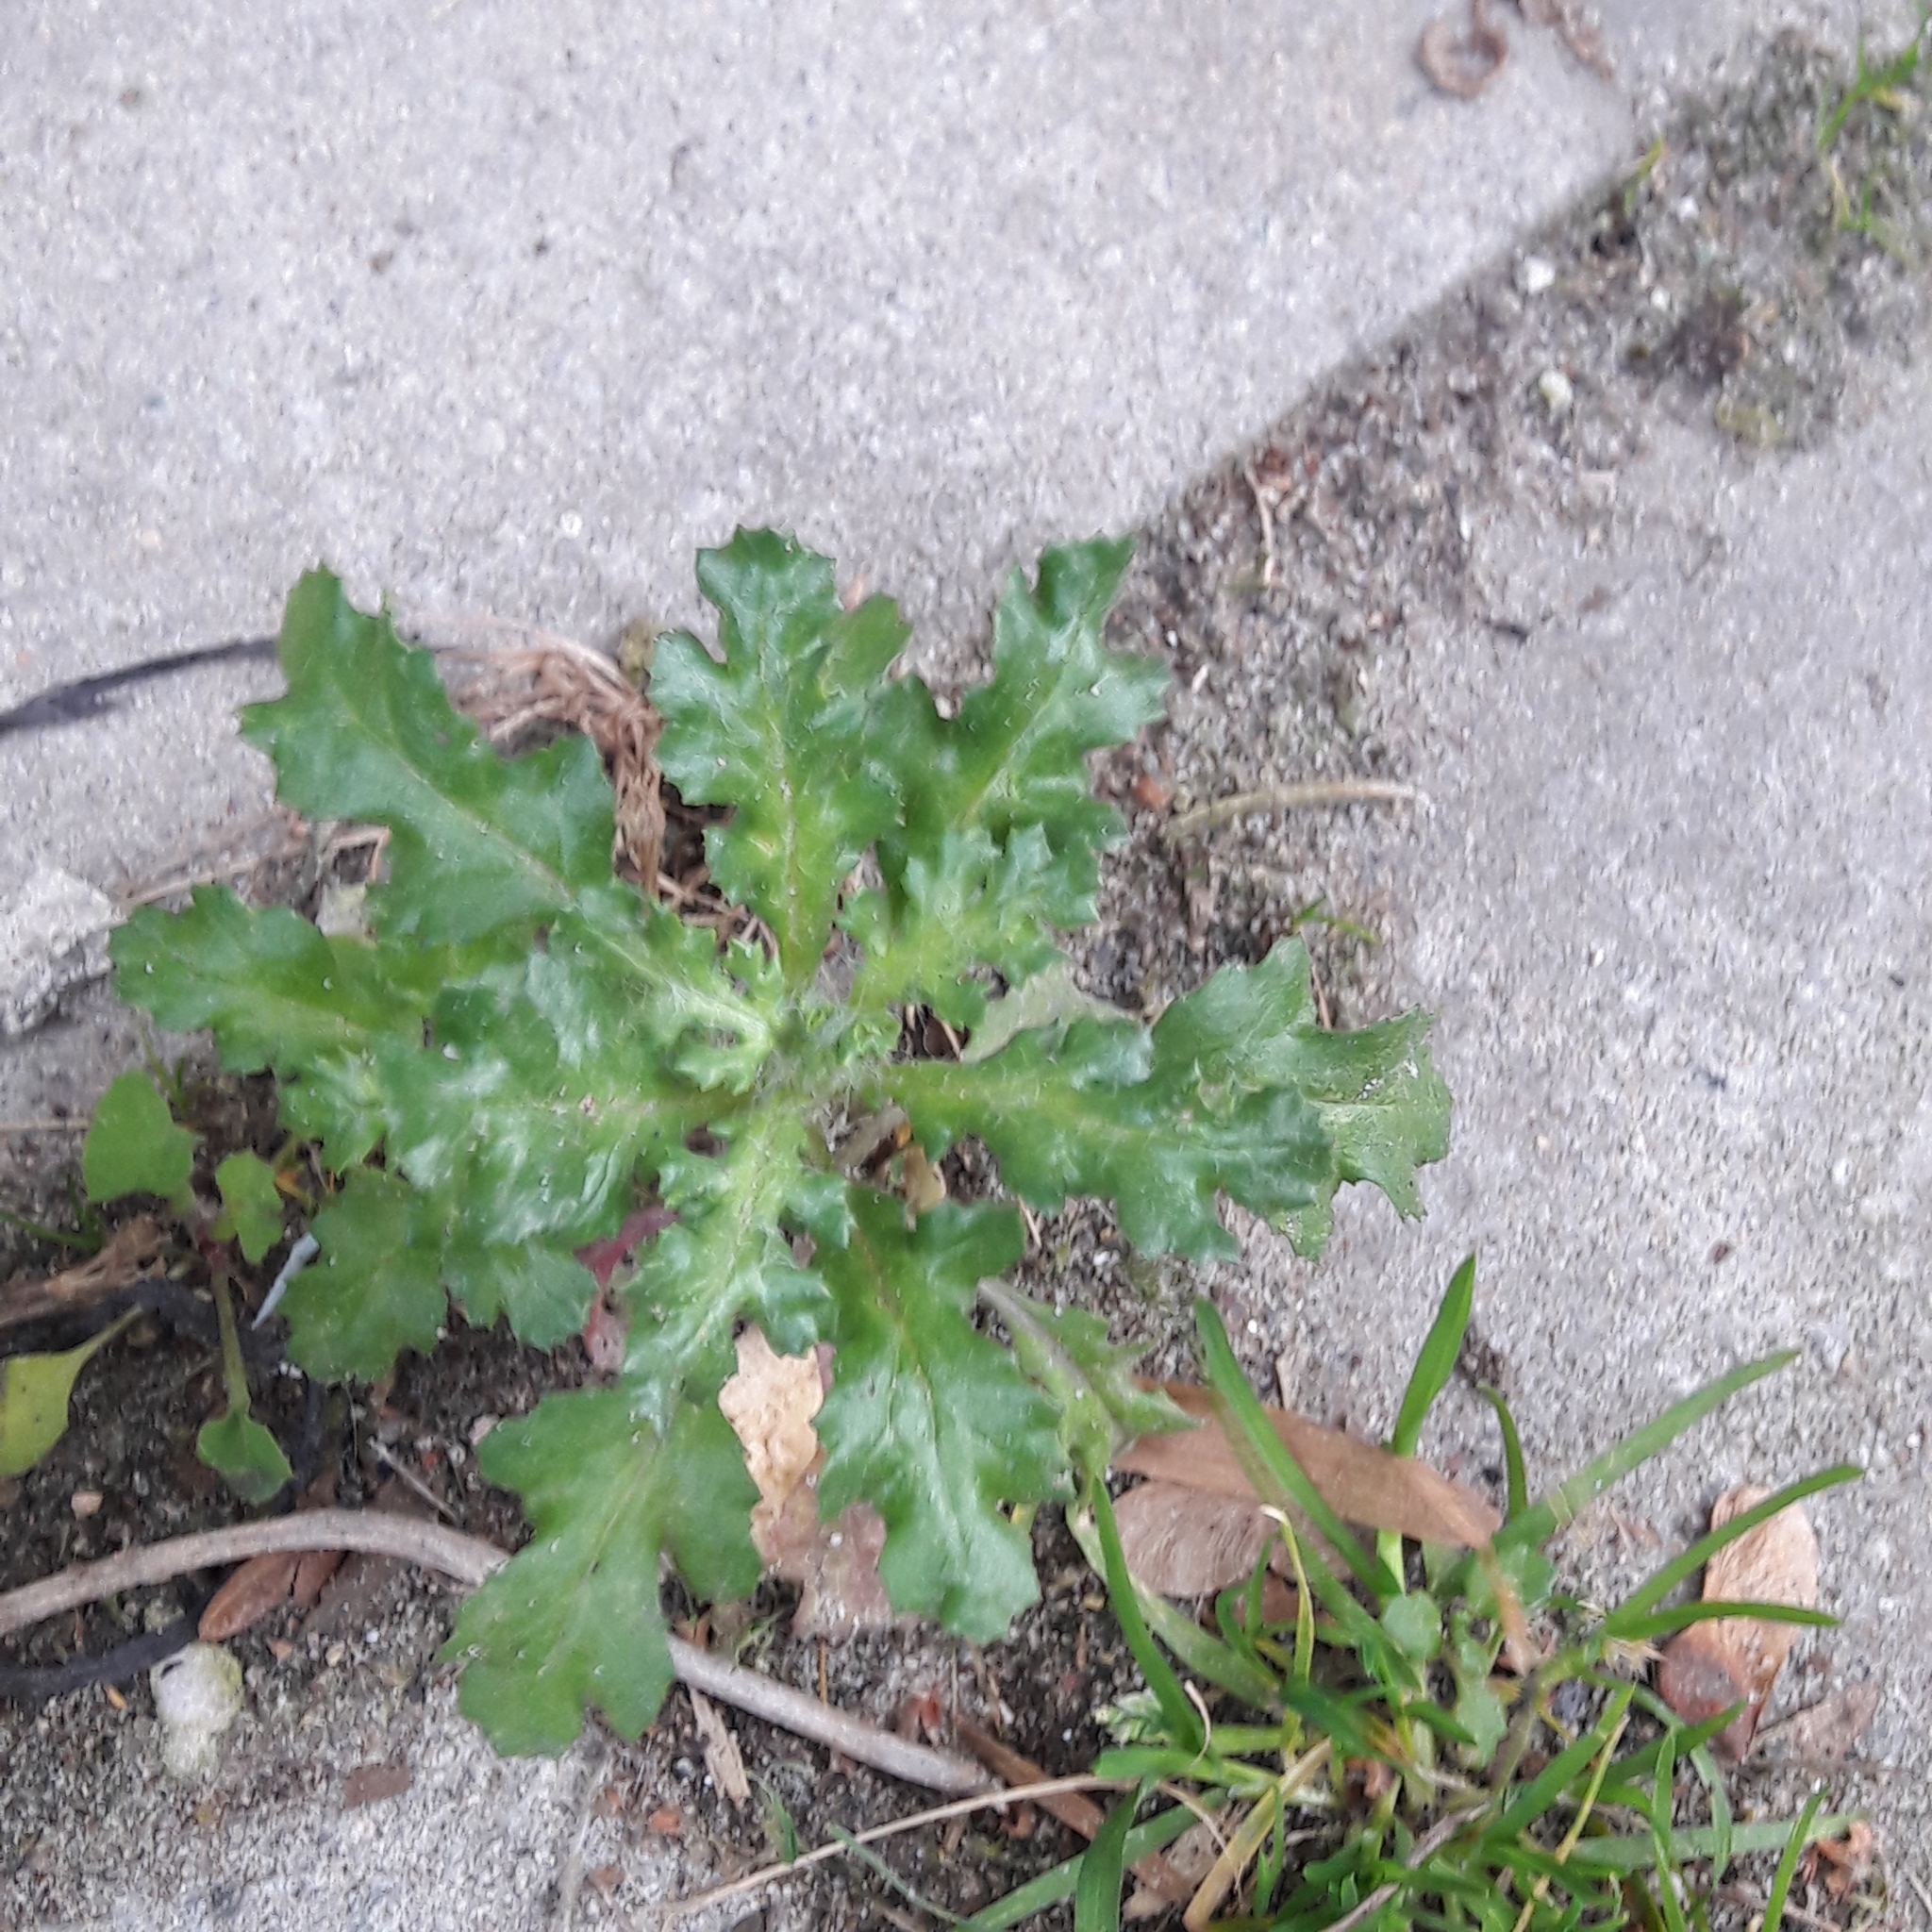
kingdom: Plantae
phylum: Tracheophyta
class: Magnoliopsida
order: Asterales
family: Asteraceae
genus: Senecio
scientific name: Senecio vulgaris
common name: Old-man-in-the-spring
